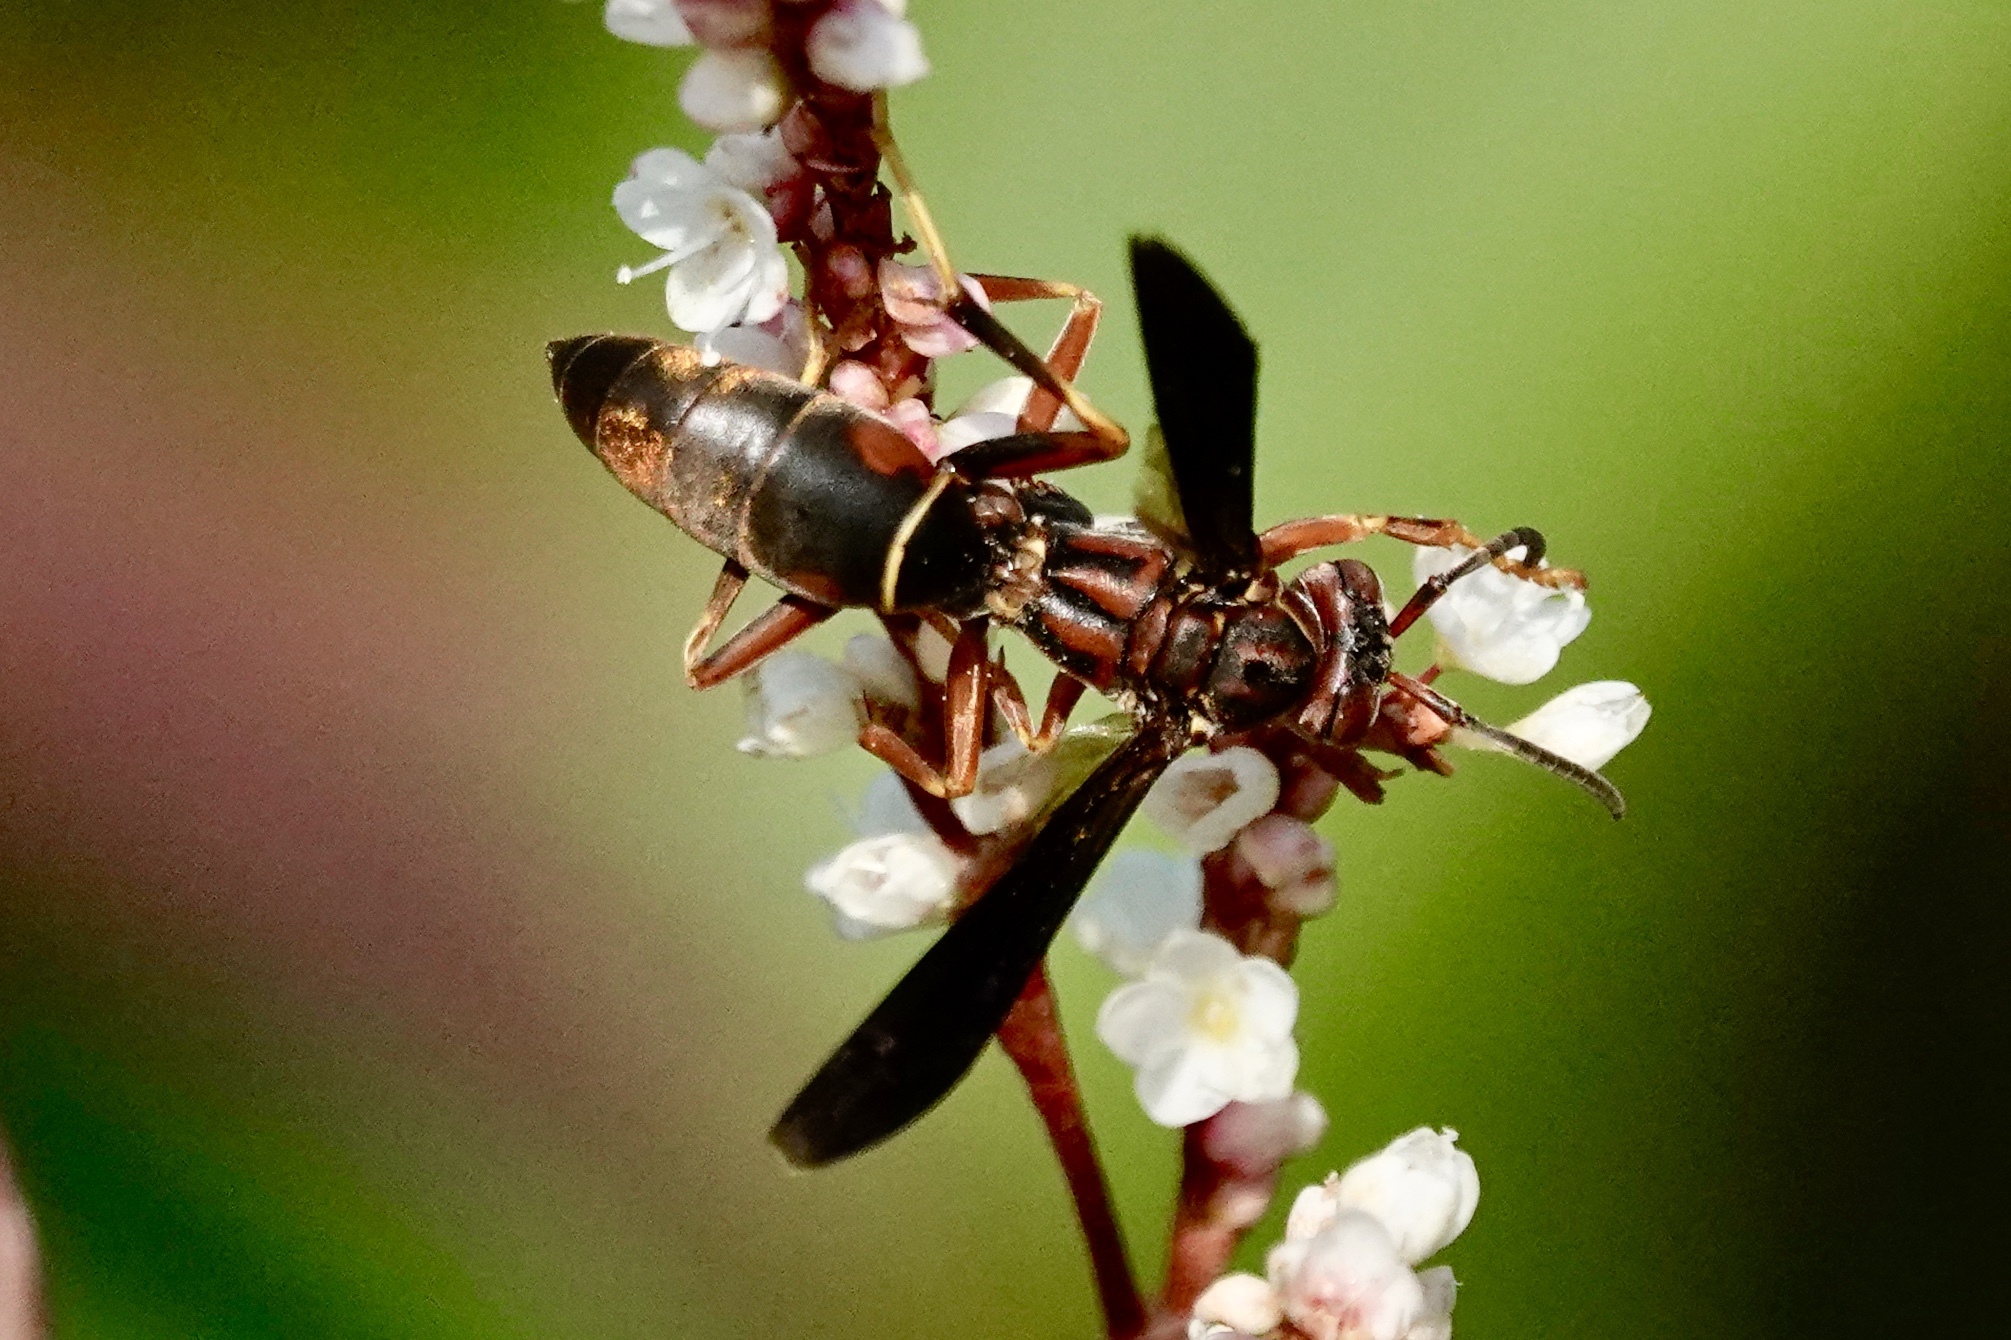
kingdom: Animalia
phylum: Arthropoda
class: Insecta
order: Hymenoptera
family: Eumenidae
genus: Polistes
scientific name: Polistes fuscatus
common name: Dark paper wasp
